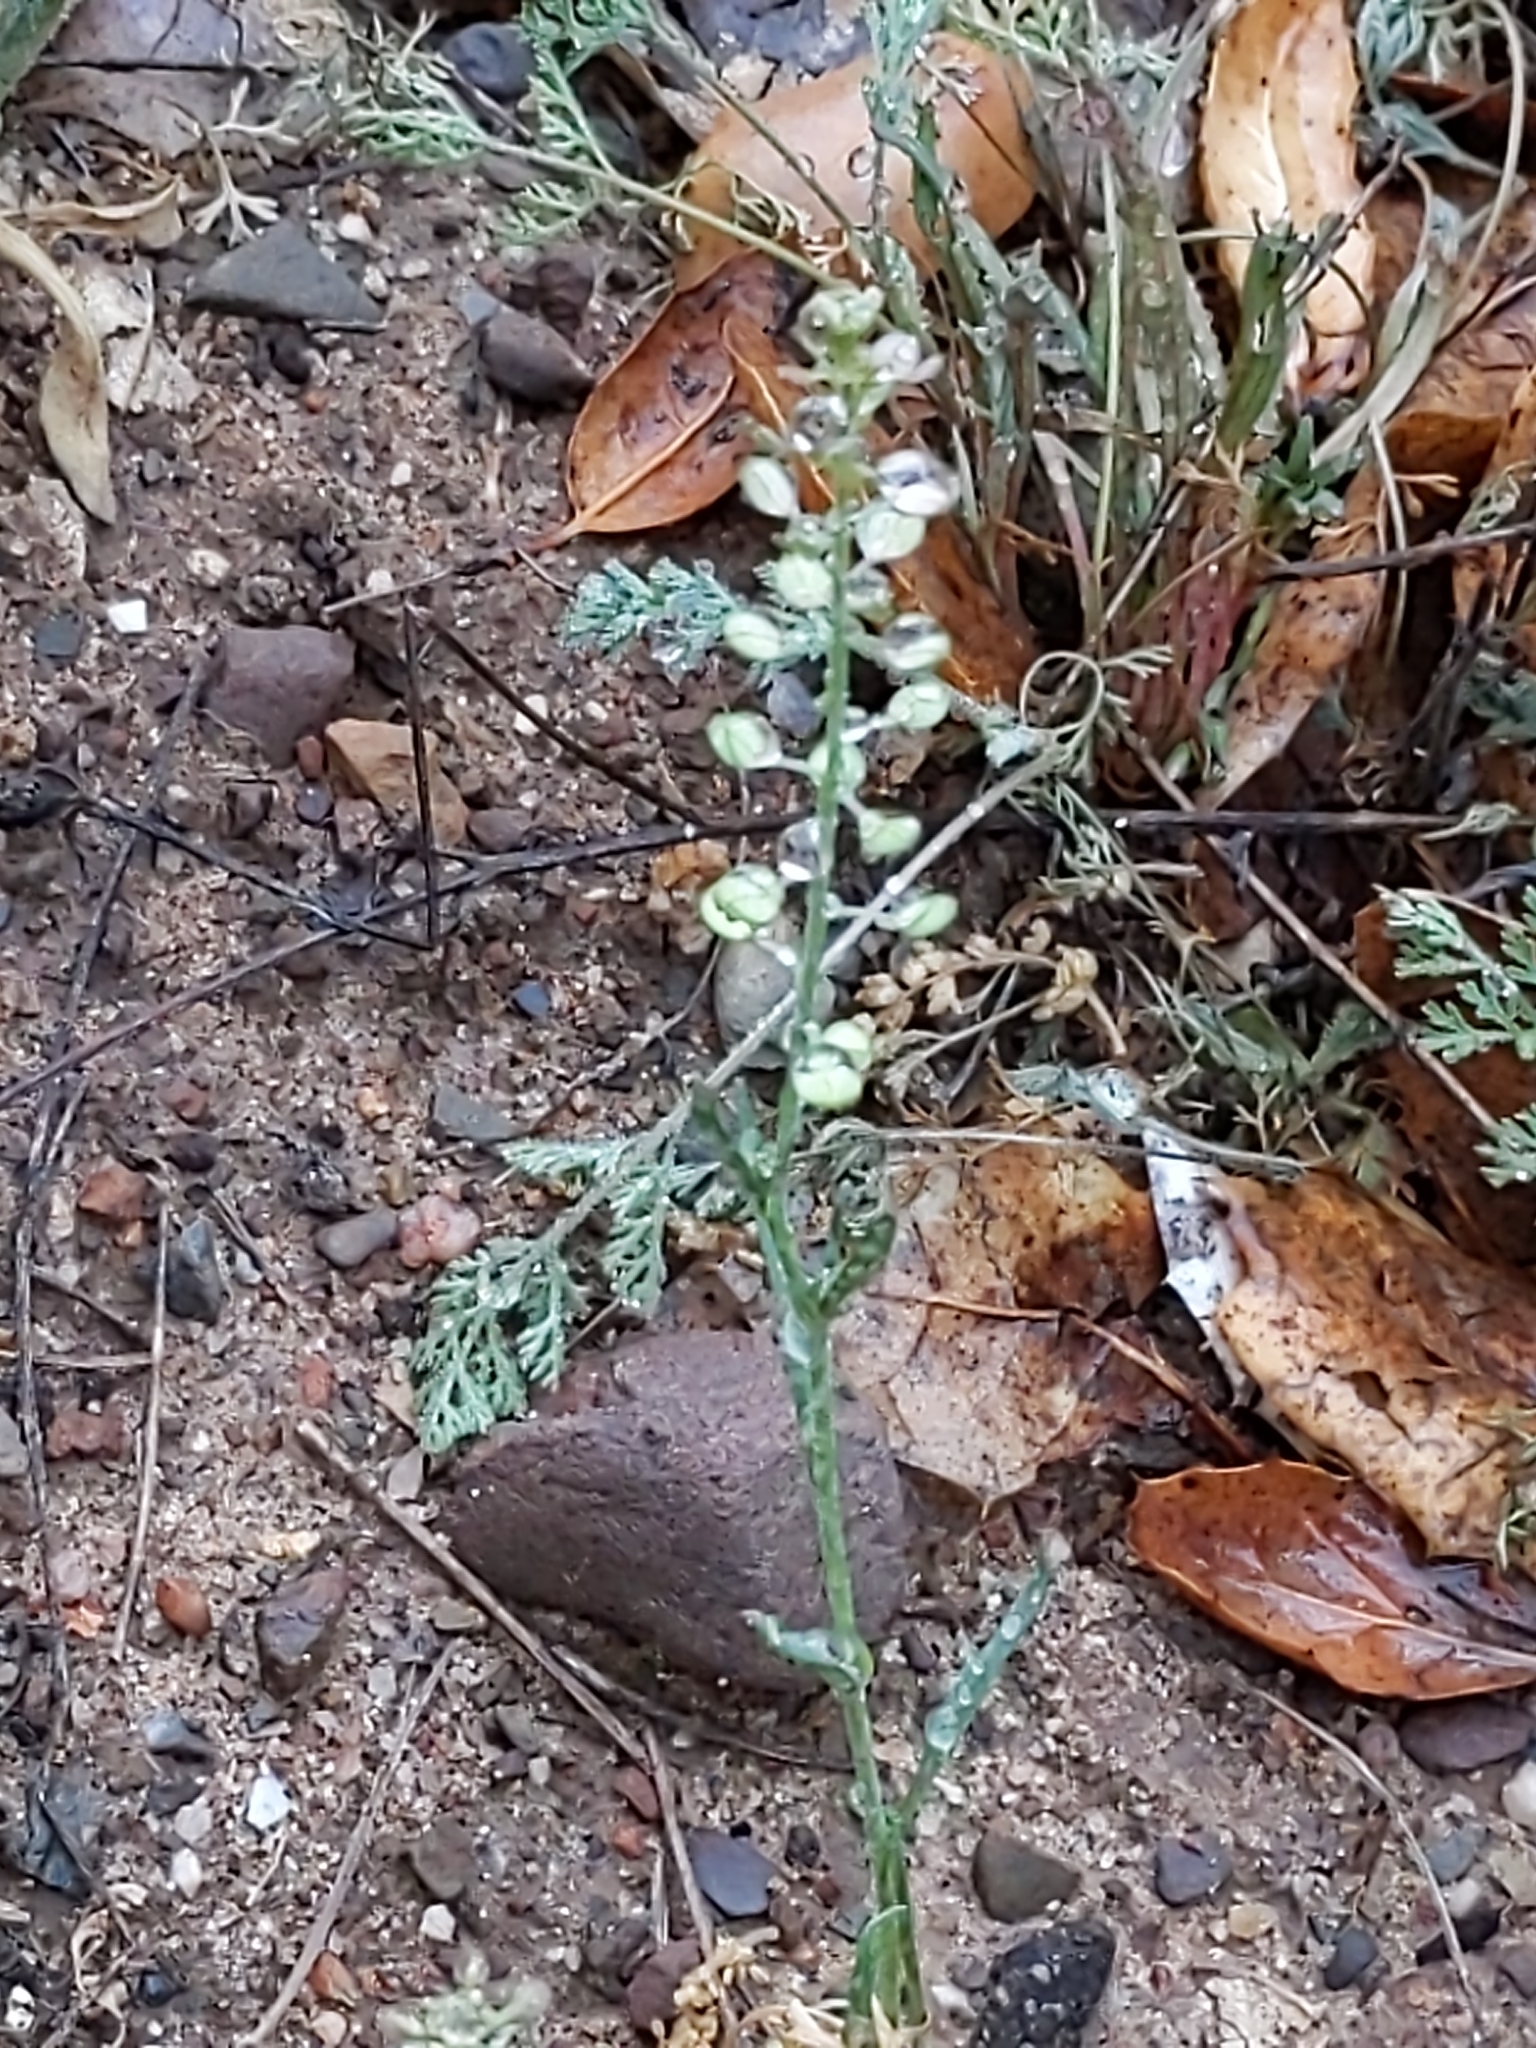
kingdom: Plantae
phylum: Tracheophyta
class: Magnoliopsida
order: Brassicales
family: Brassicaceae
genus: Lepidium
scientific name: Lepidium nitidum
